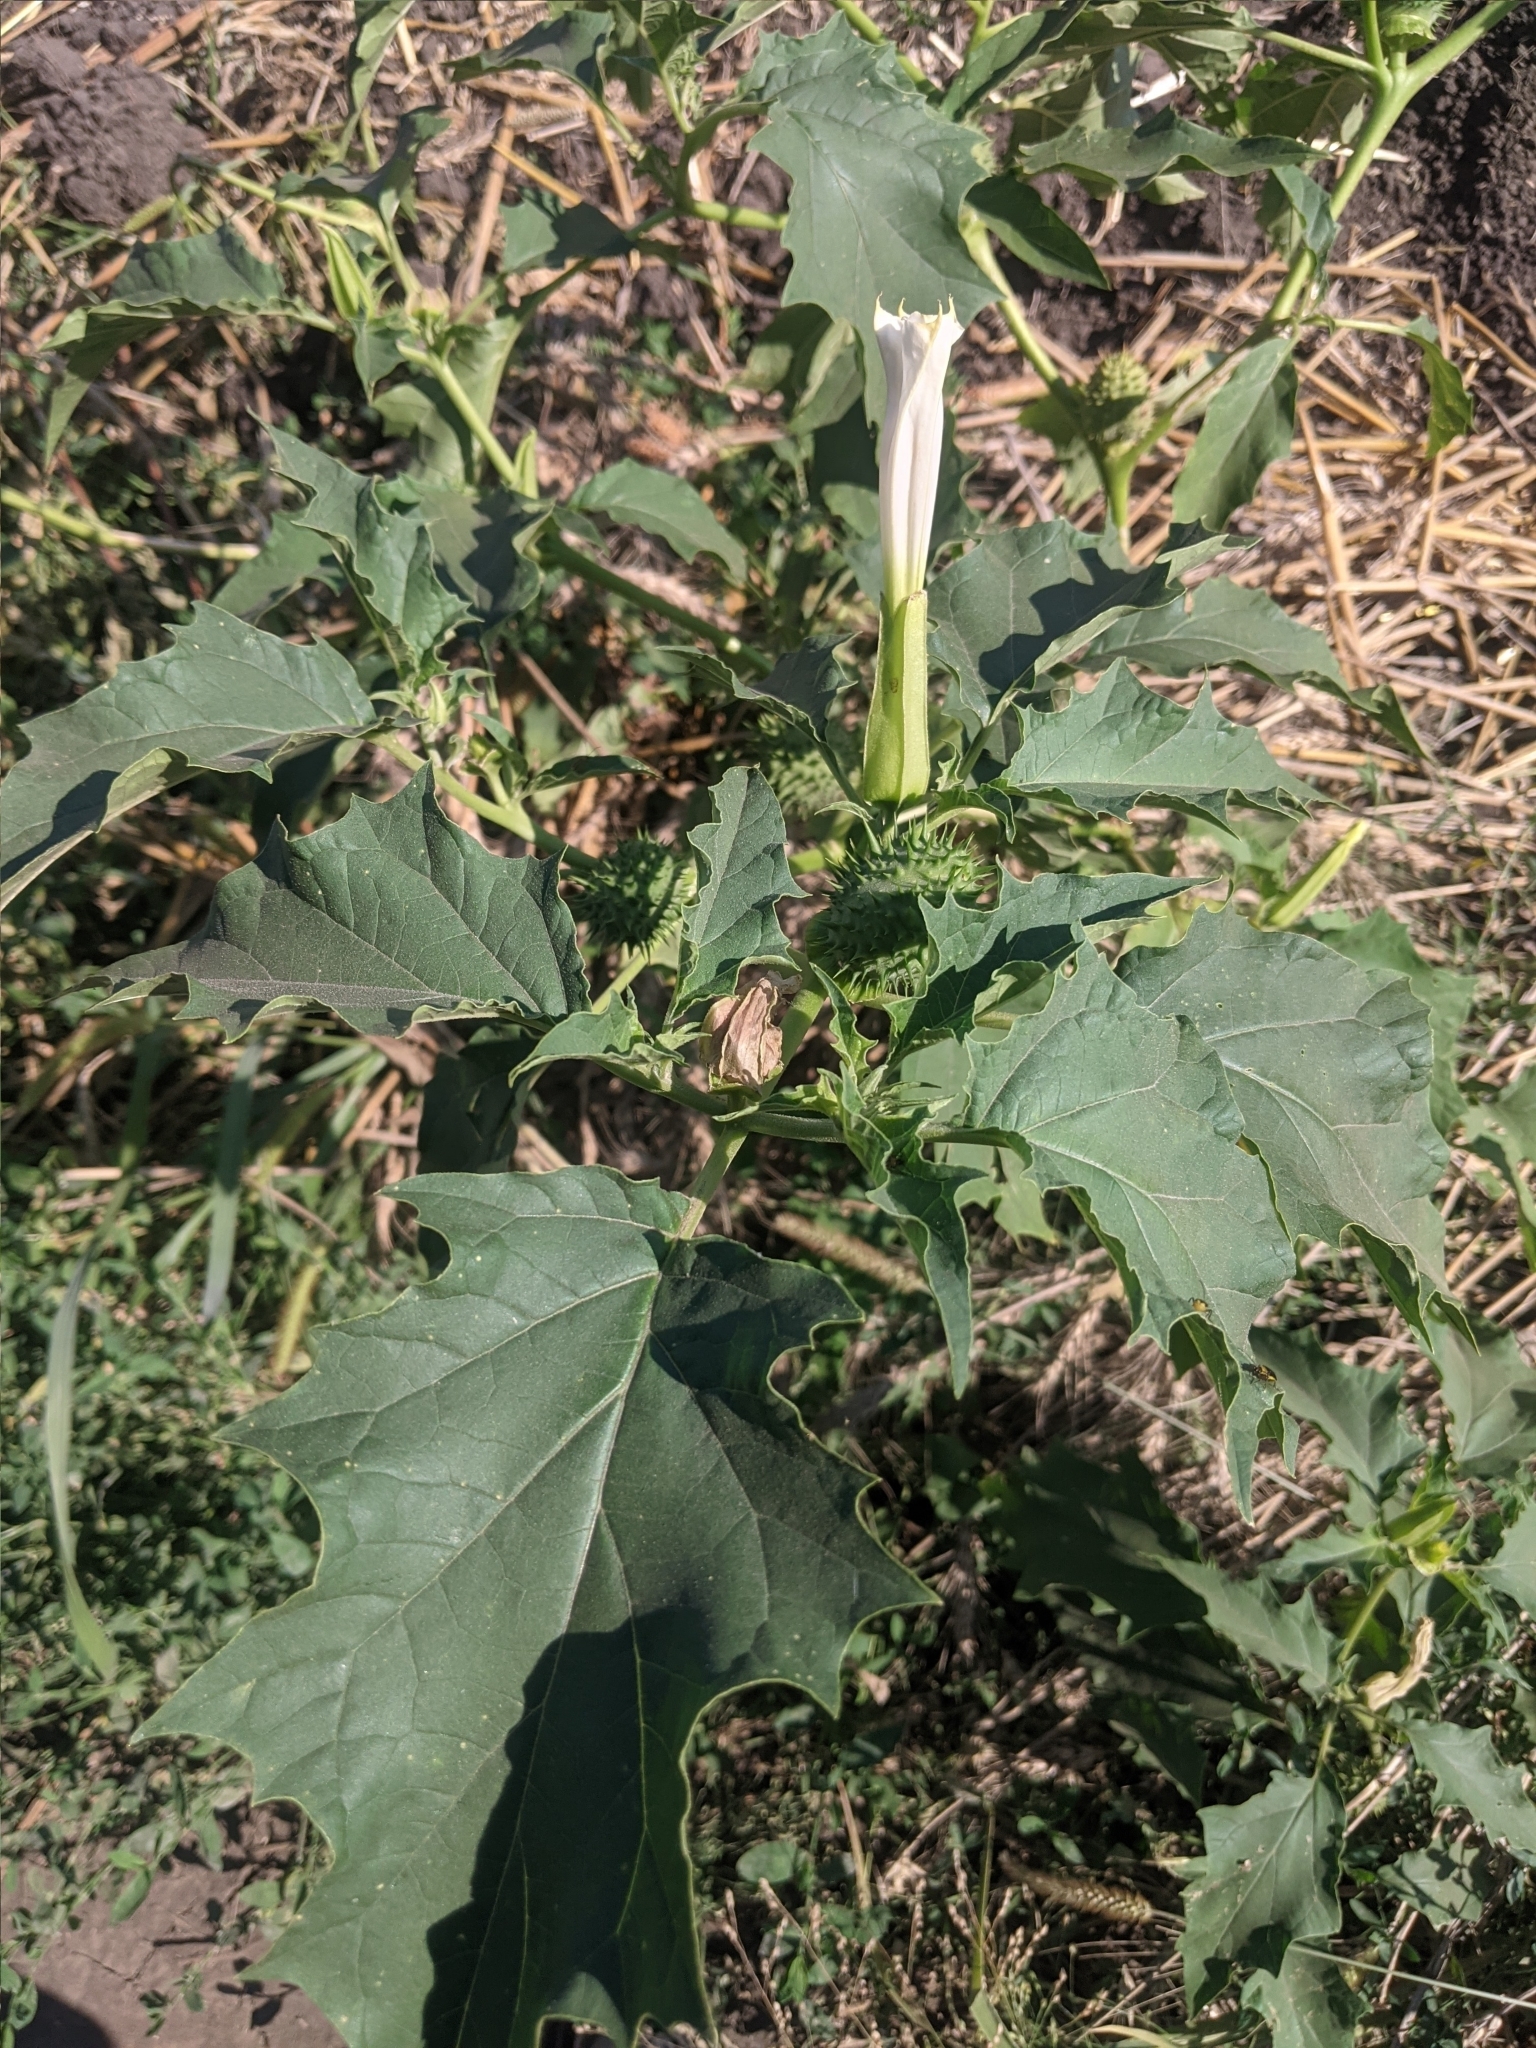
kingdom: Plantae
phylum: Tracheophyta
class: Magnoliopsida
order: Solanales
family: Solanaceae
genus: Datura
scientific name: Datura stramonium
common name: Thorn-apple
